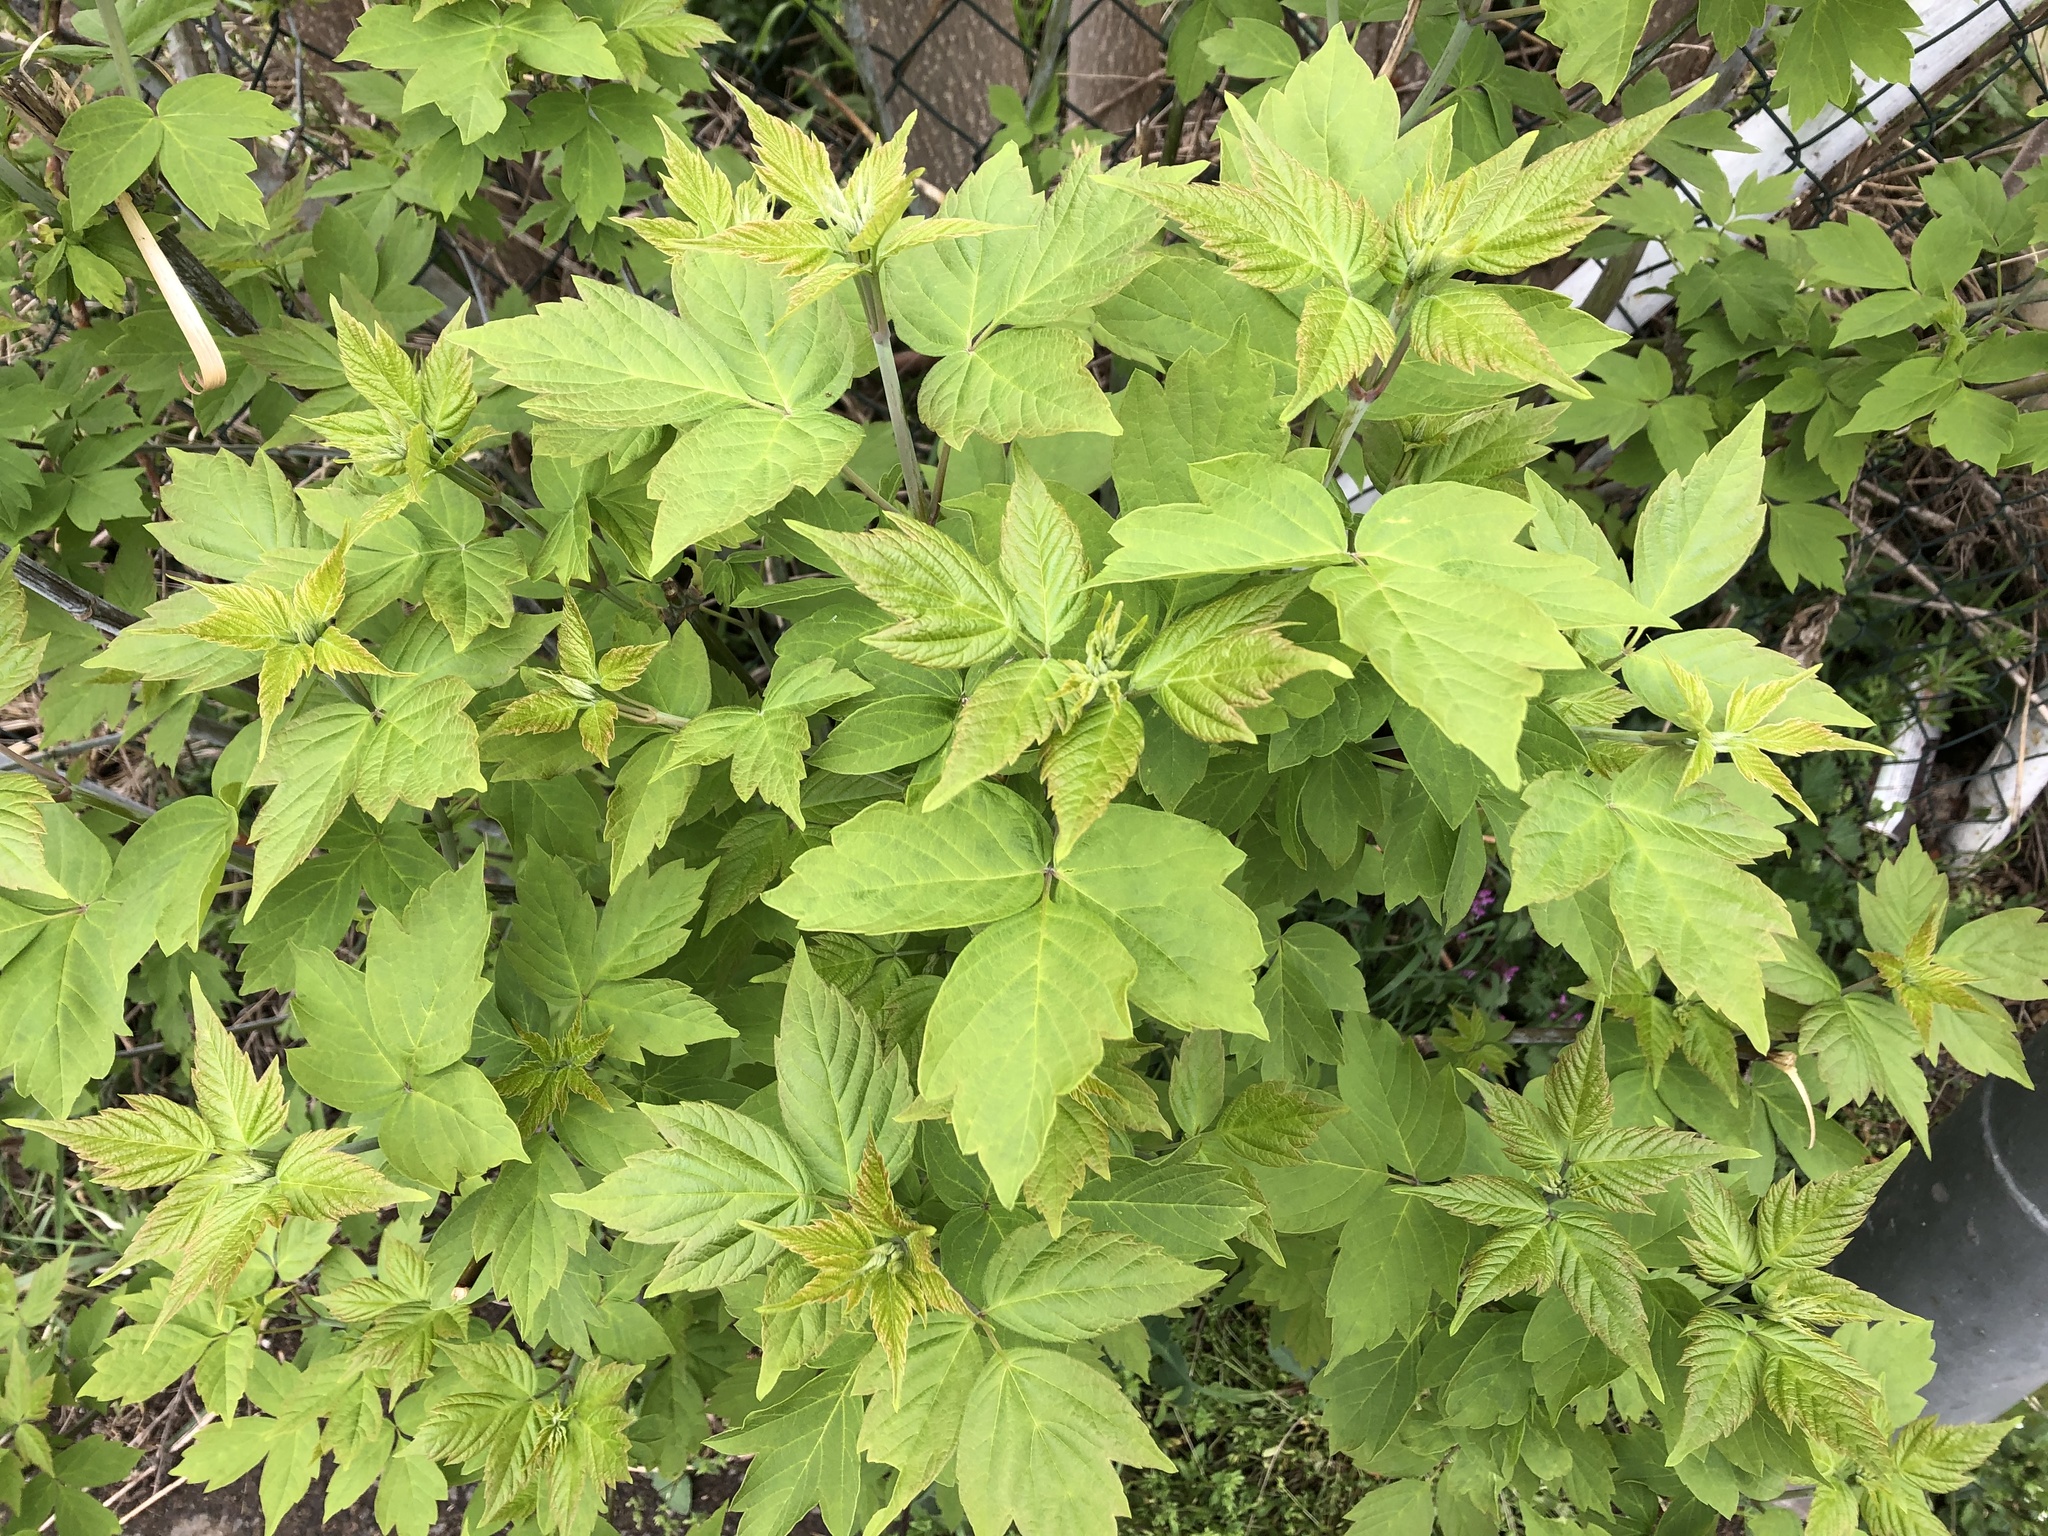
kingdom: Plantae
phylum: Tracheophyta
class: Magnoliopsida
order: Sapindales
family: Sapindaceae
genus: Acer
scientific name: Acer negundo
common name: Ashleaf maple
